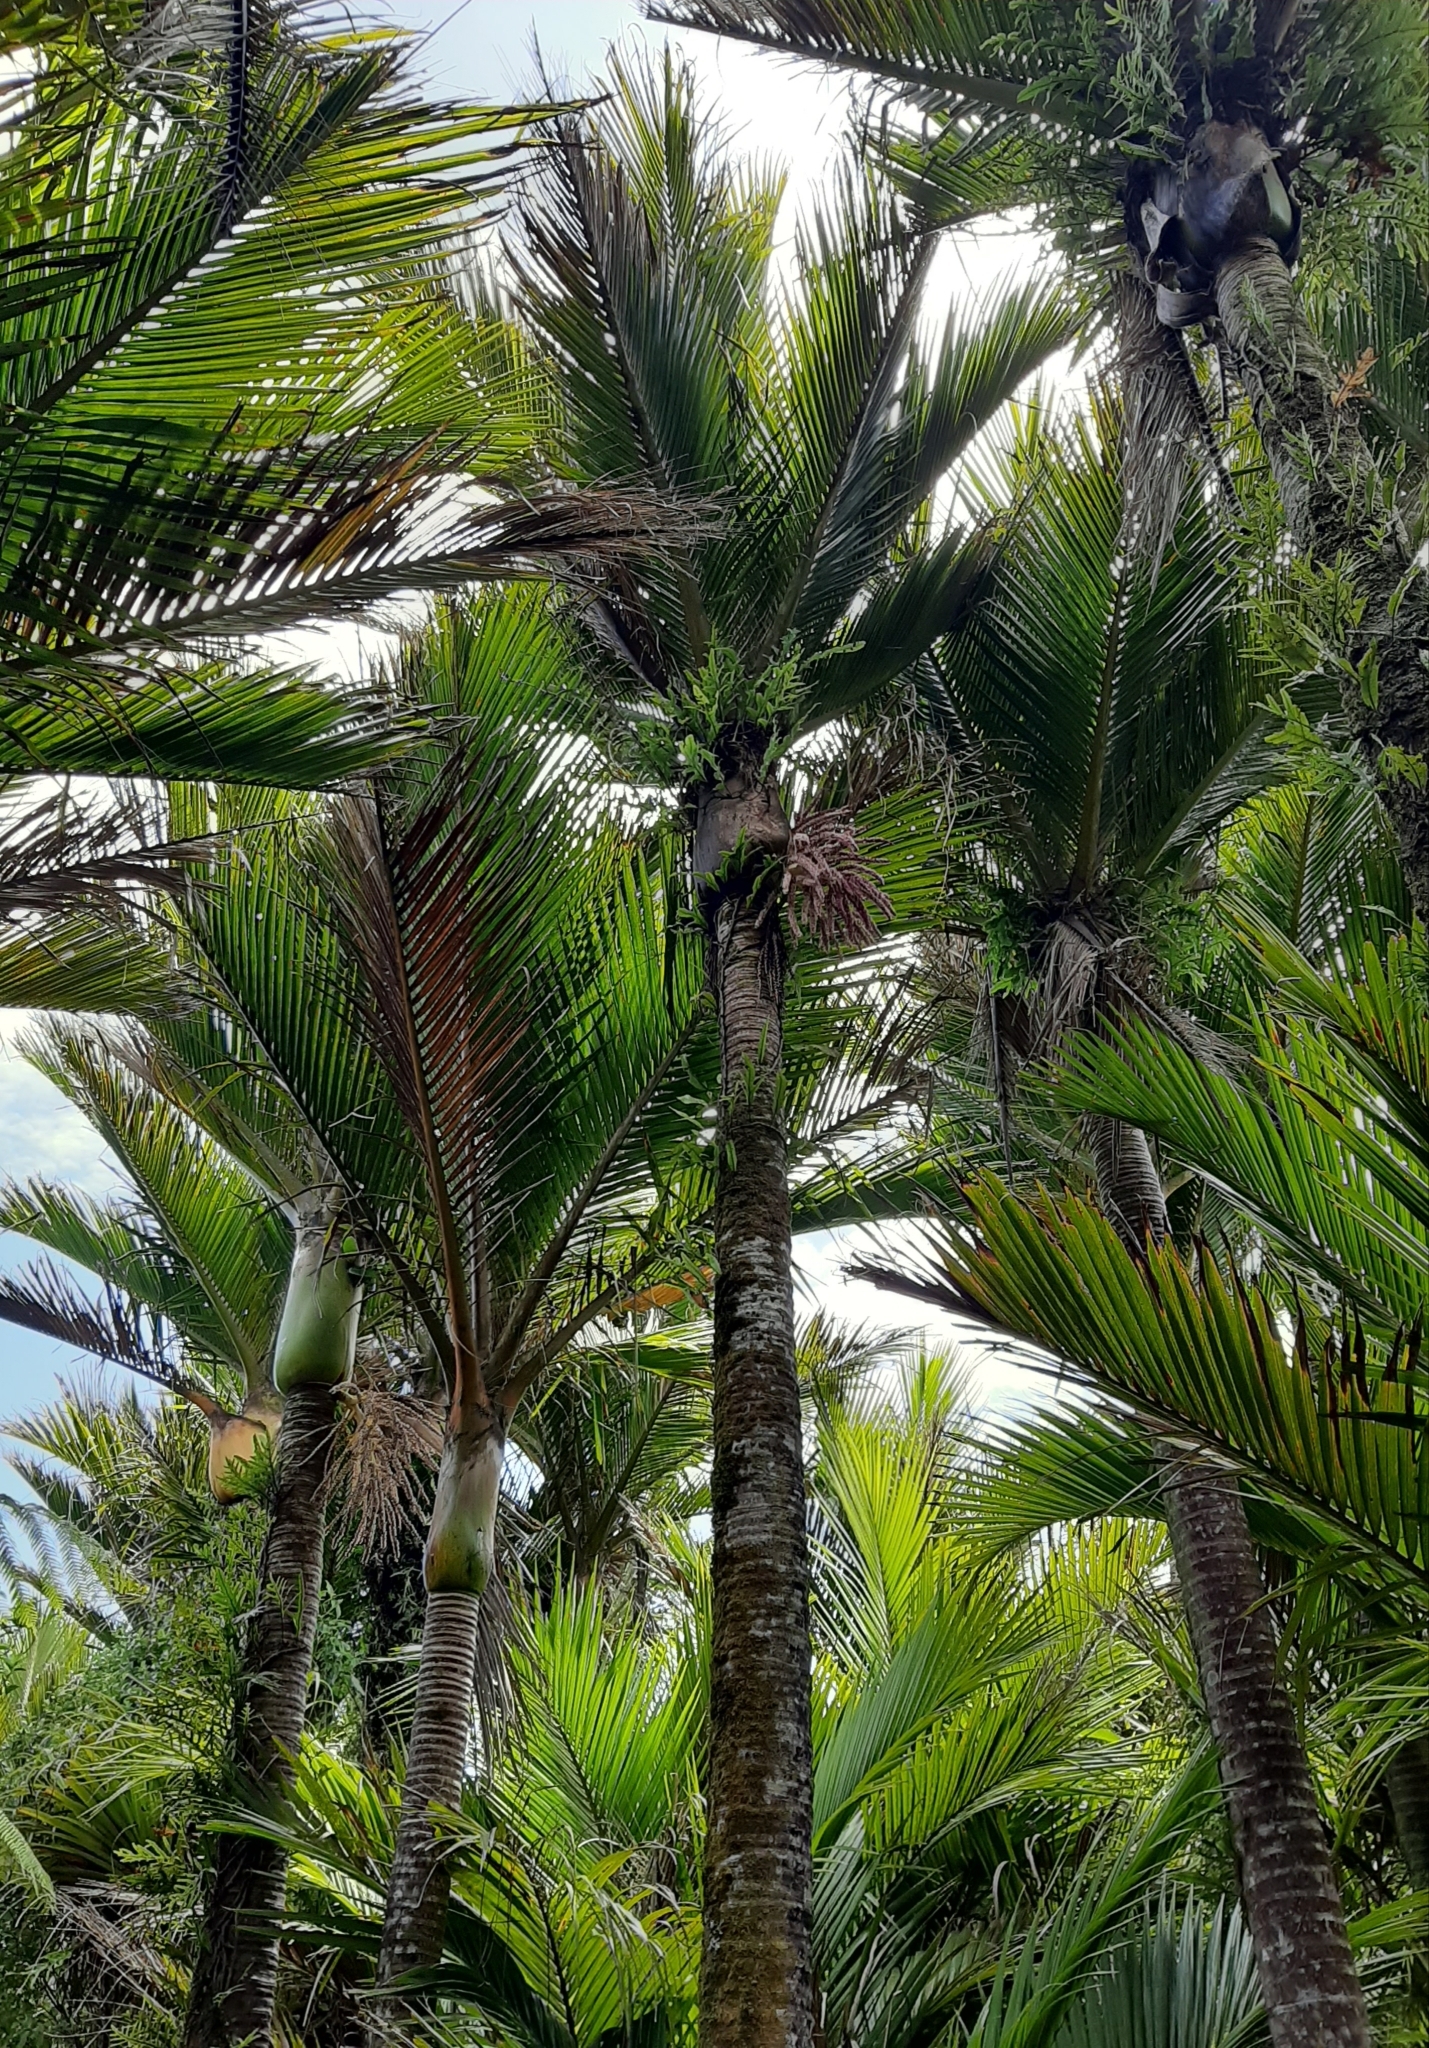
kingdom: Plantae
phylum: Tracheophyta
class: Liliopsida
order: Arecales
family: Arecaceae
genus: Rhopalostylis
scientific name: Rhopalostylis sapida
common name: Feather-duster palm
